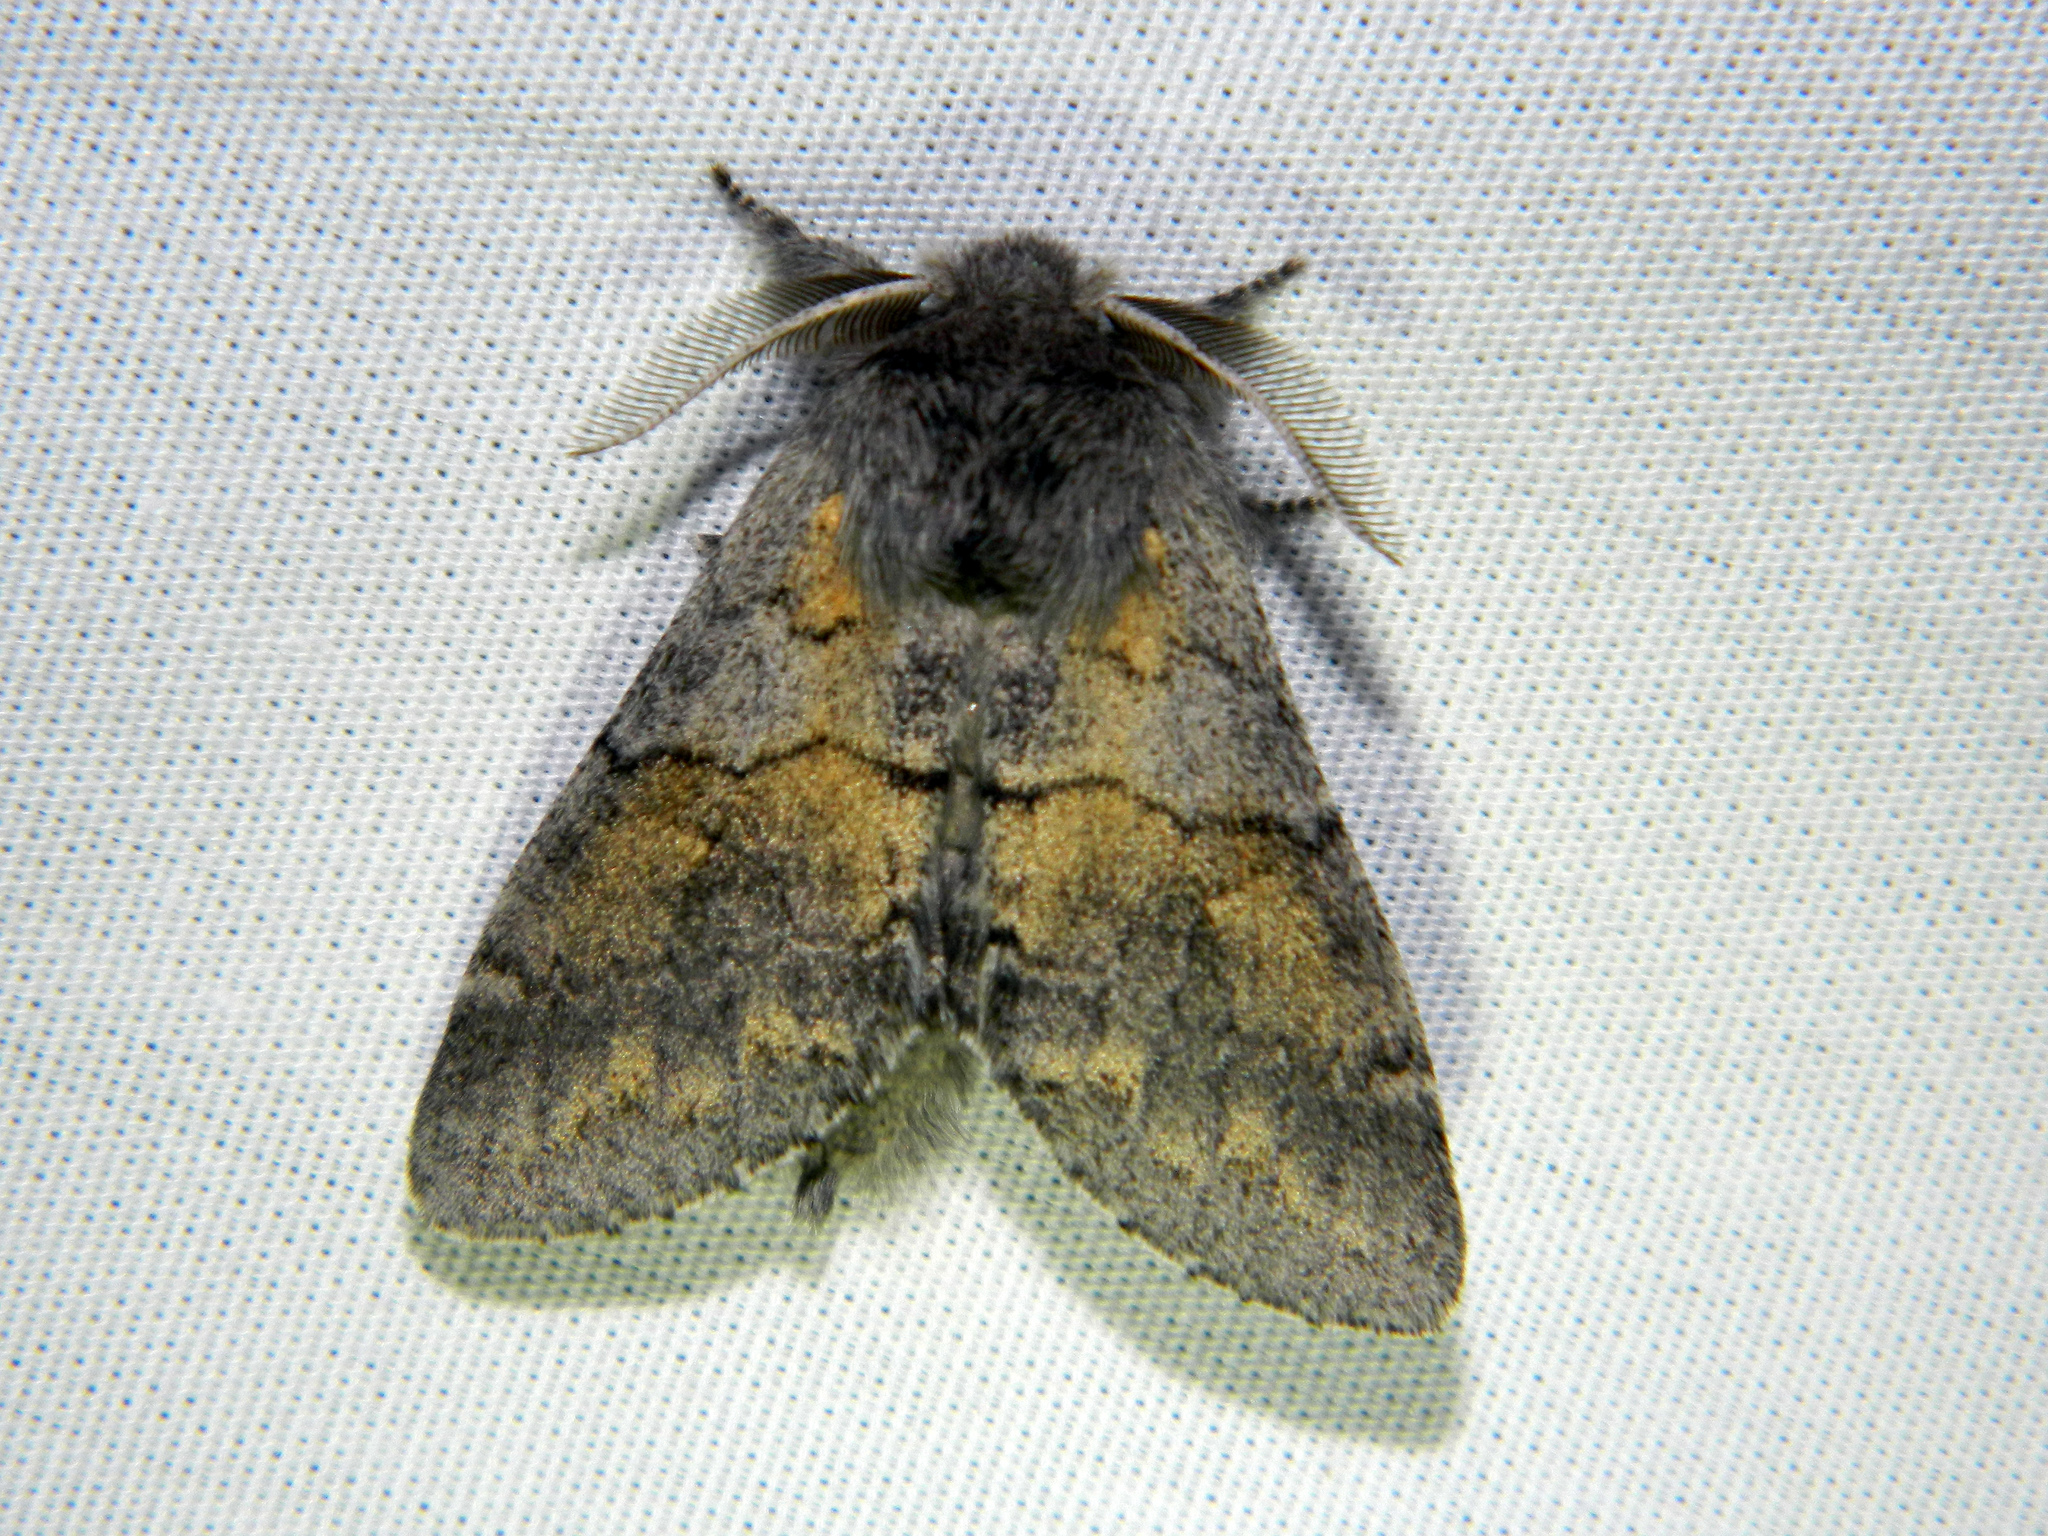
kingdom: Animalia
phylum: Arthropoda
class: Insecta
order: Lepidoptera
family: Notodontidae
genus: Gluphisia
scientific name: Gluphisia lintneri
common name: Lintner's gluphisia moth
